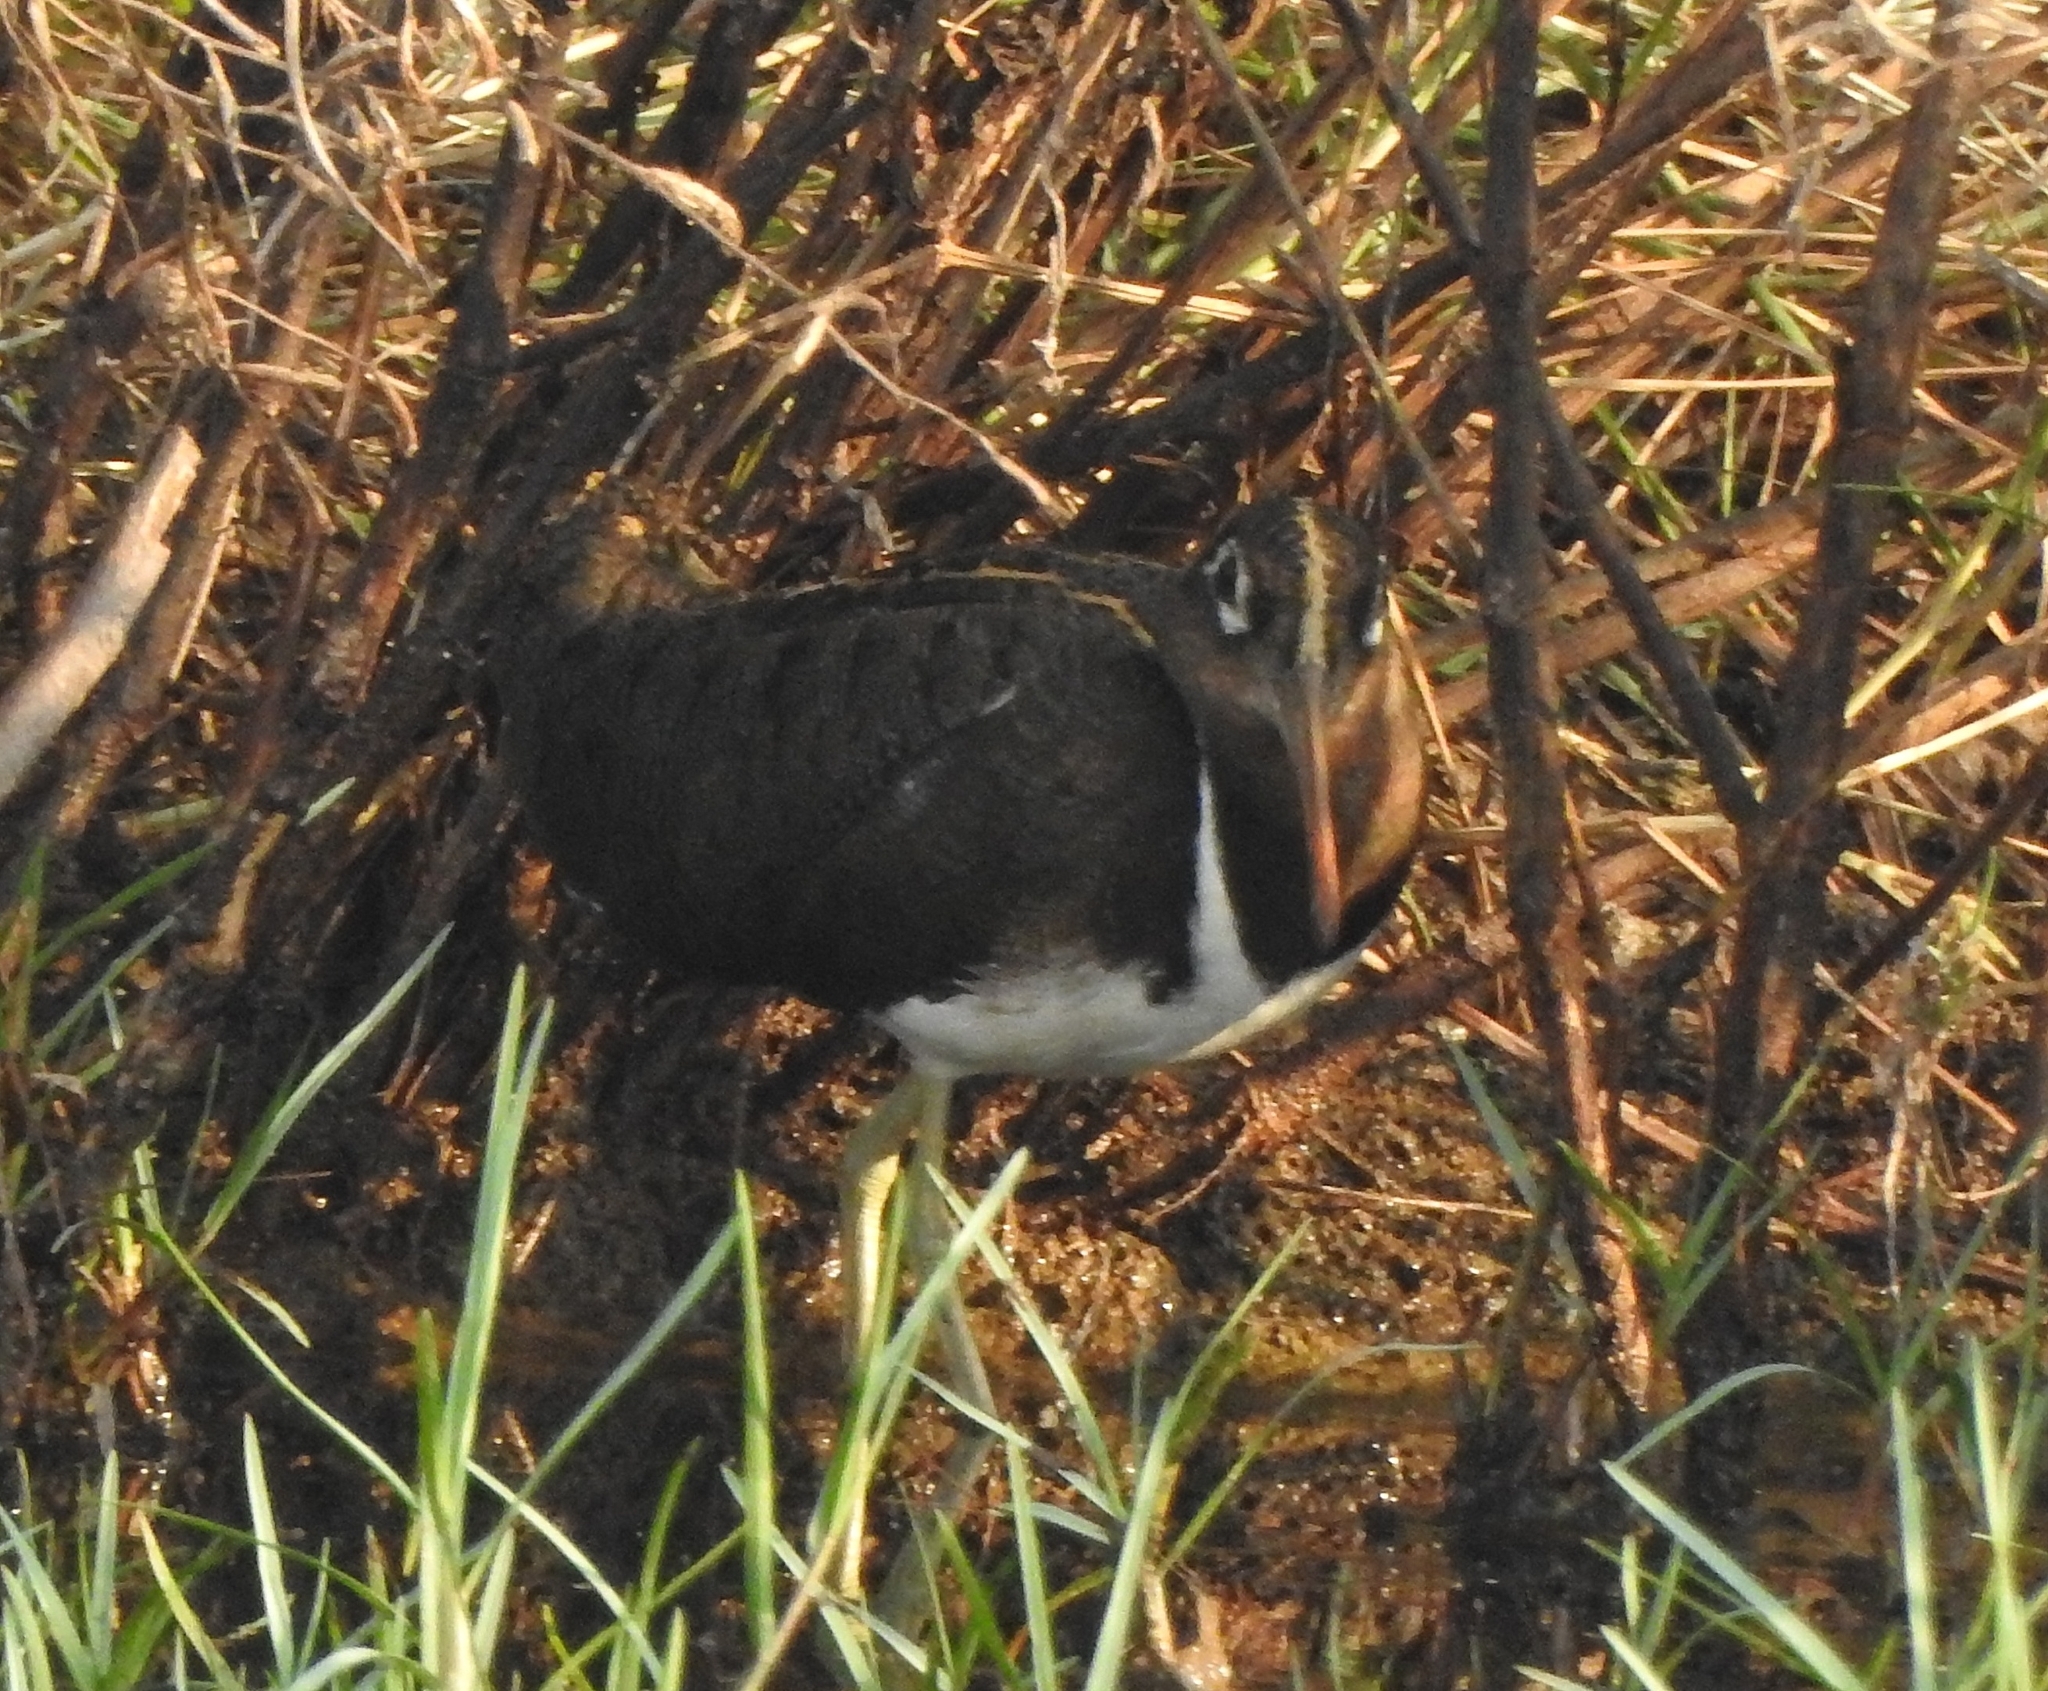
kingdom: Animalia
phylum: Chordata
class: Aves
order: Charadriiformes
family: Rostratulidae
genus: Rostratula
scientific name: Rostratula benghalensis
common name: Greater painted-snipe
